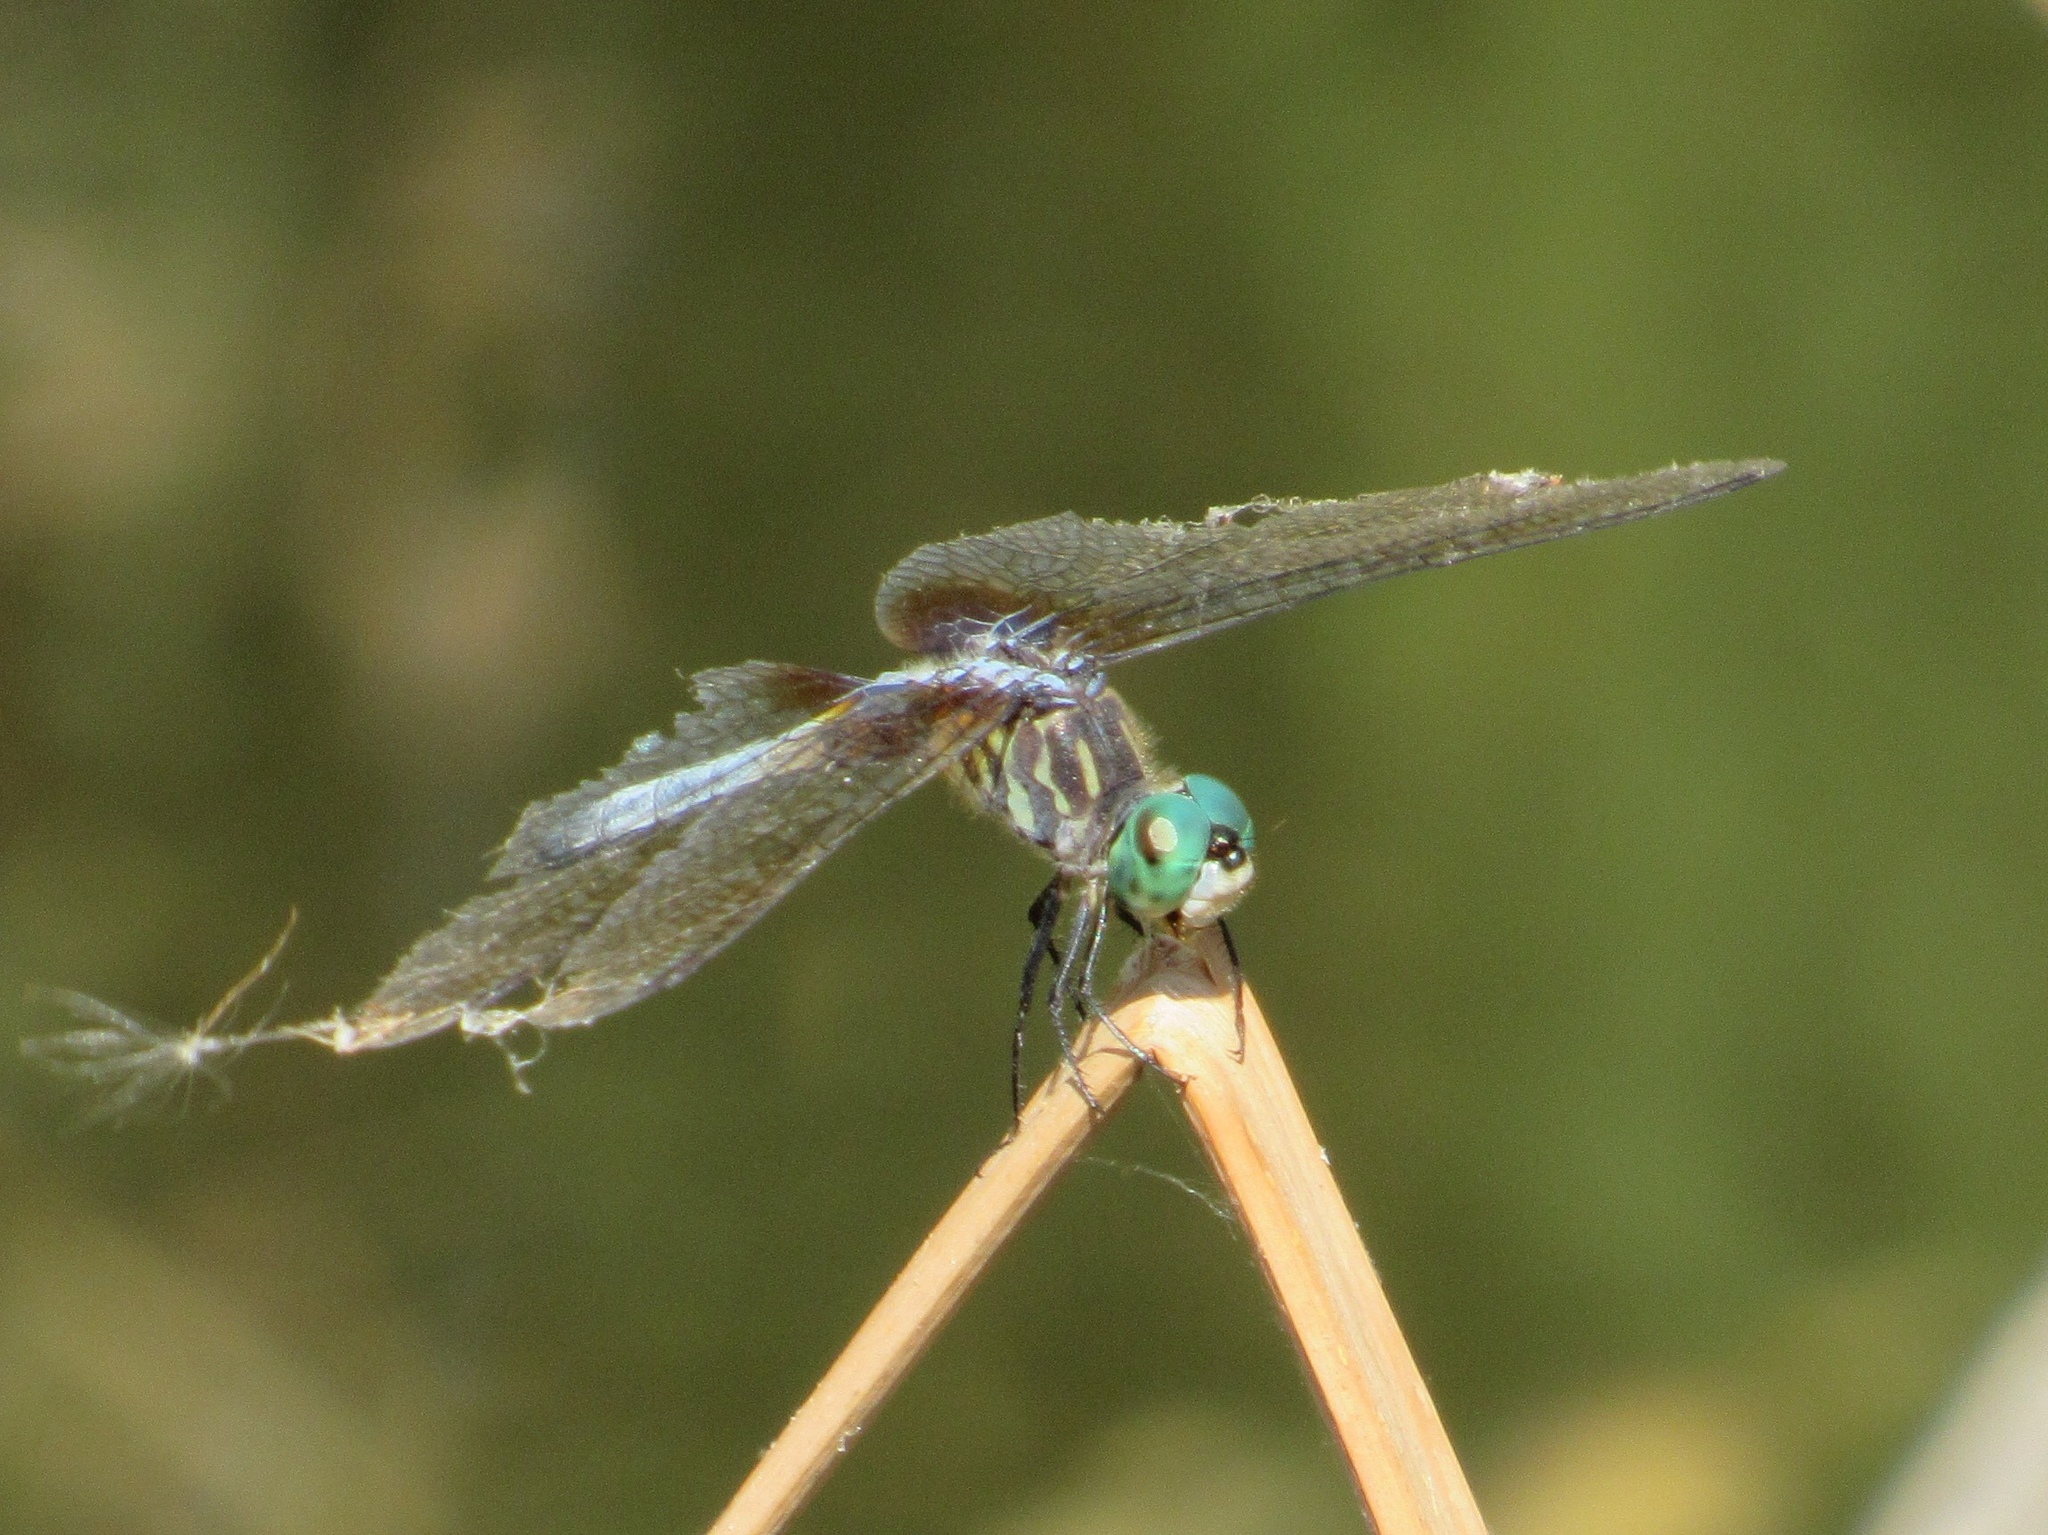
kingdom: Animalia
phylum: Arthropoda
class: Insecta
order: Odonata
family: Libellulidae
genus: Pachydiplax
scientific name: Pachydiplax longipennis
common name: Blue dasher
